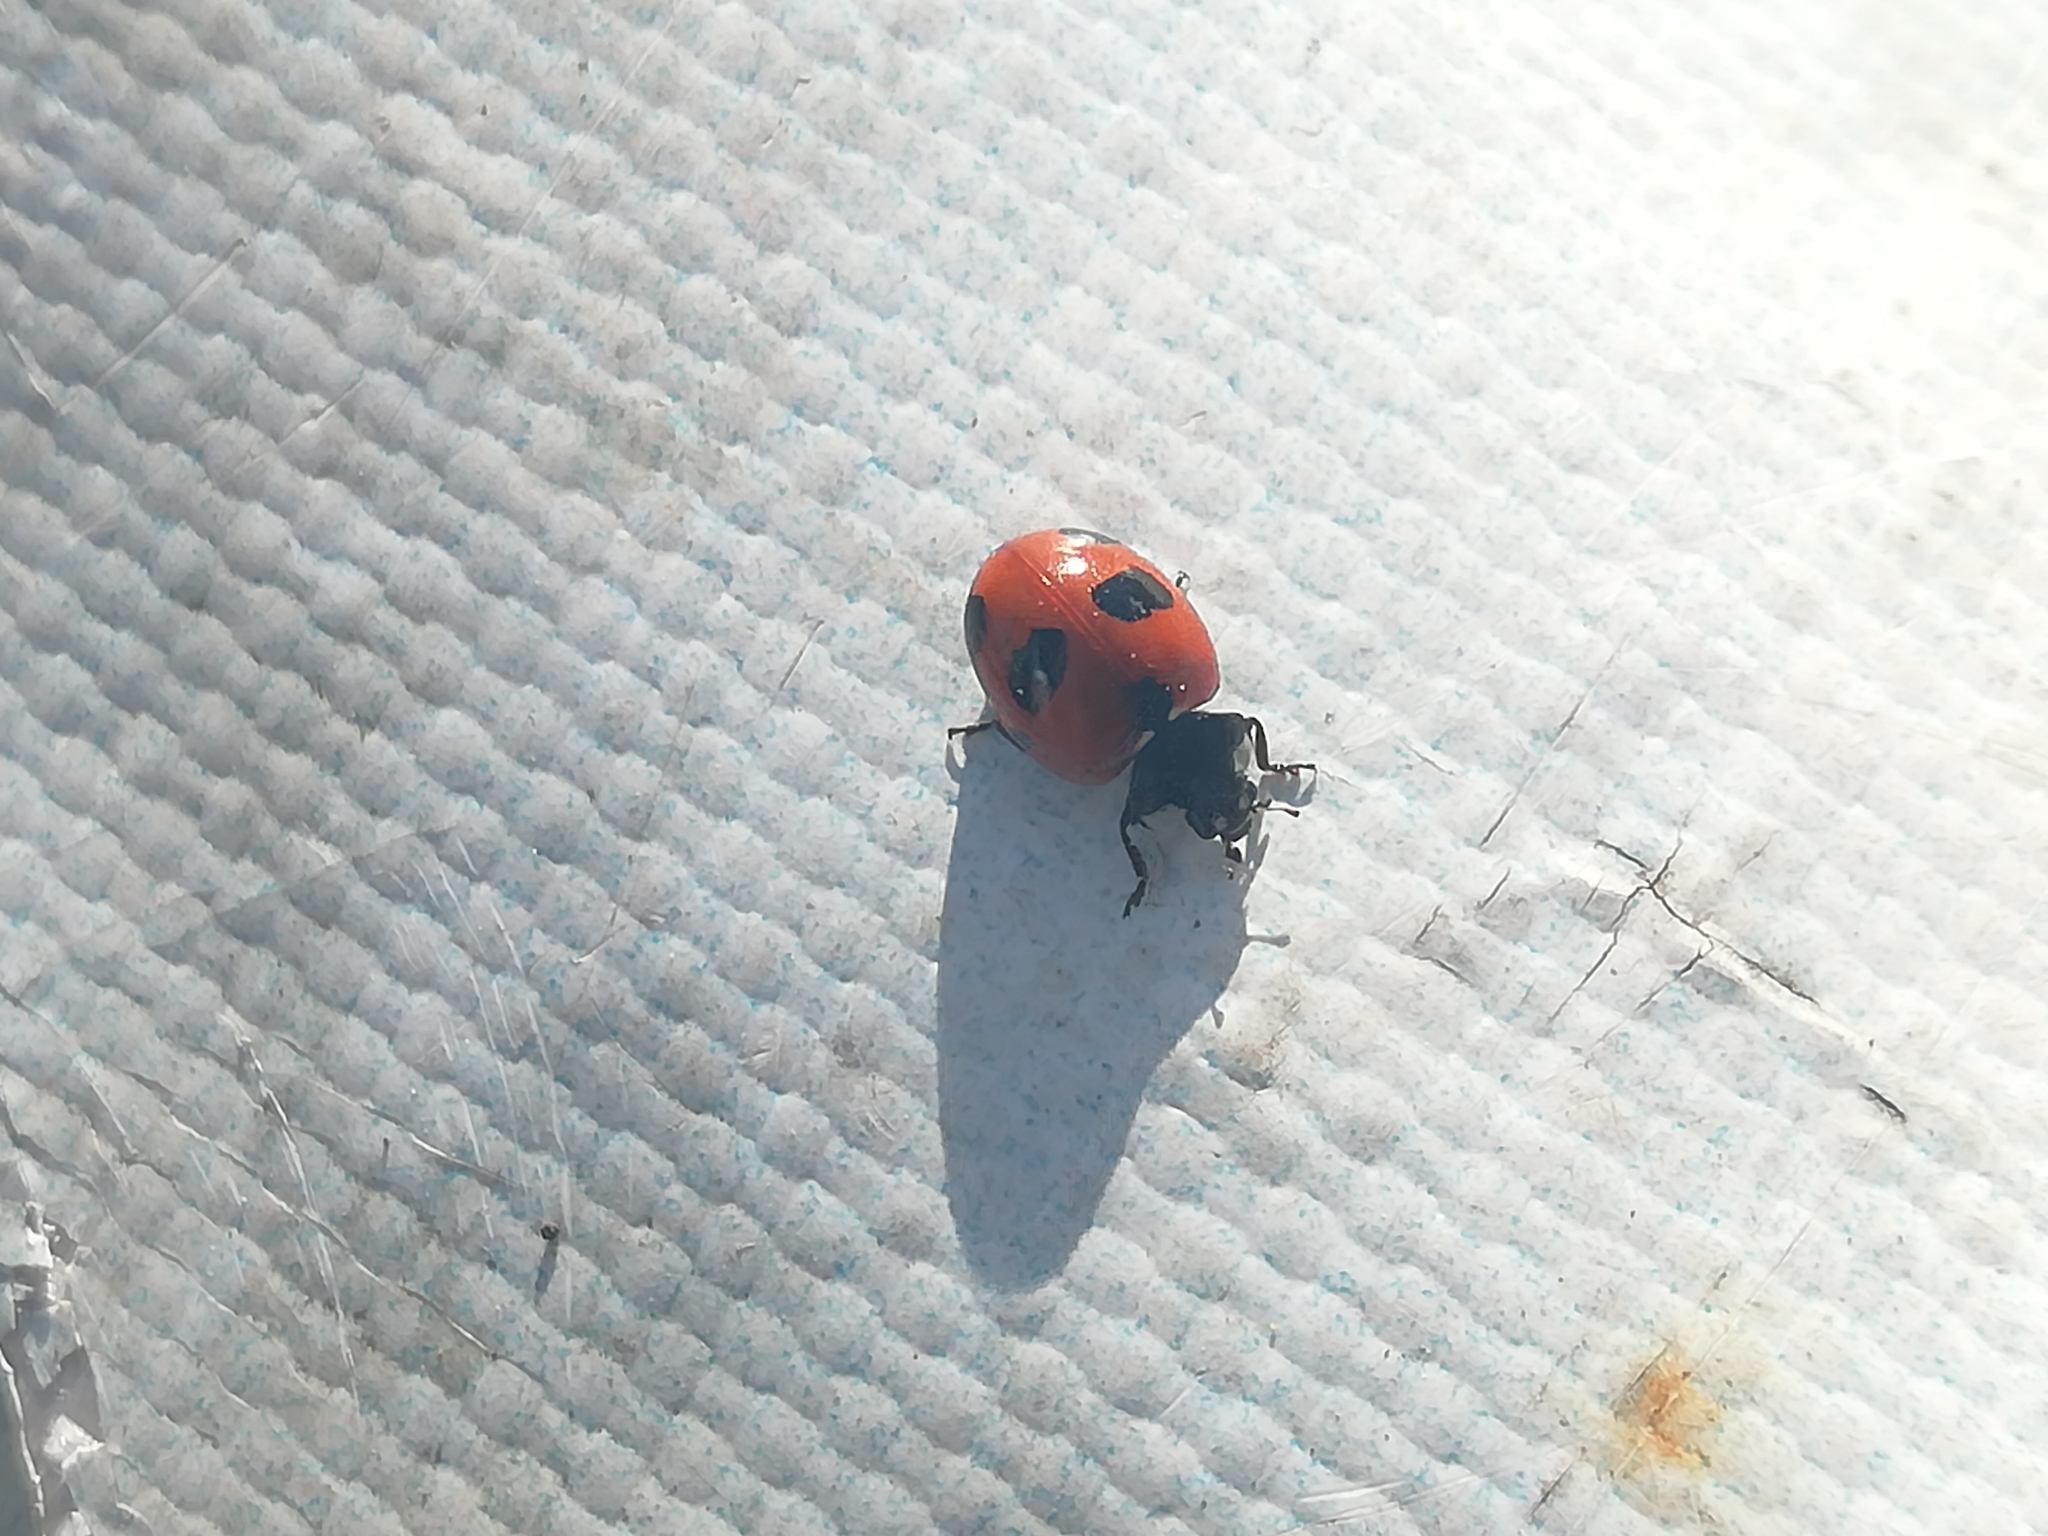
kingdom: Animalia
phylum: Arthropoda
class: Insecta
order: Coleoptera
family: Coccinellidae
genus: Coccinella
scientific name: Coccinella magnifica
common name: Scarce 7-spot ladybird
